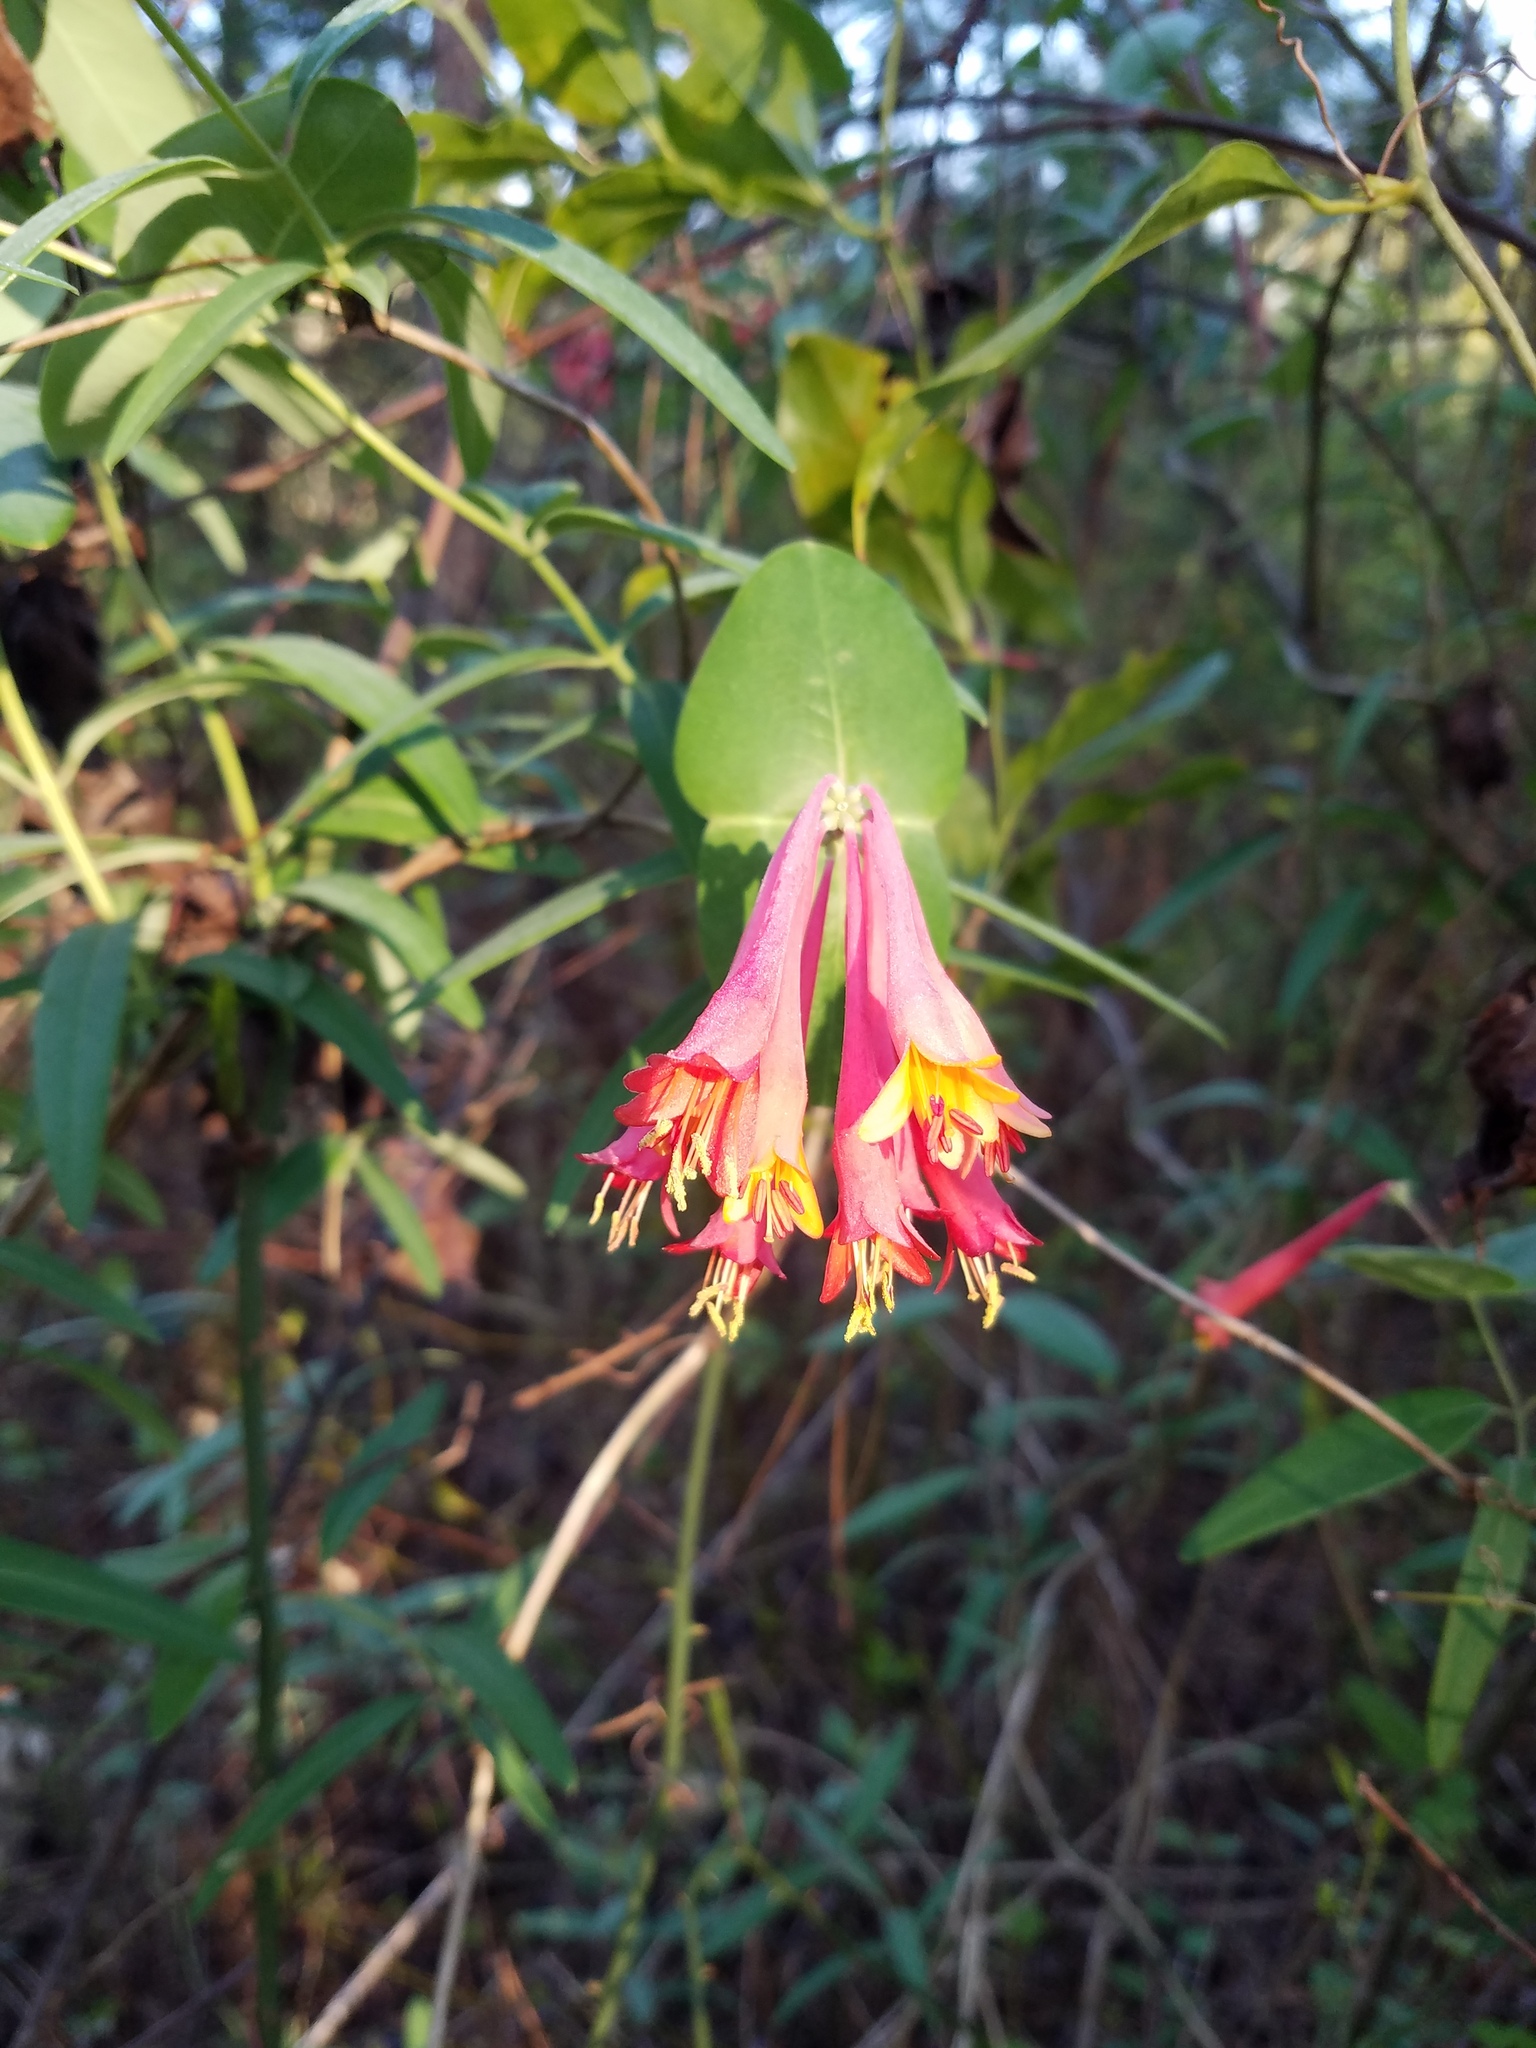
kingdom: Plantae
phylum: Tracheophyta
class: Magnoliopsida
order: Dipsacales
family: Caprifoliaceae
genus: Lonicera
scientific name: Lonicera sempervirens
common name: Coral honeysuckle
